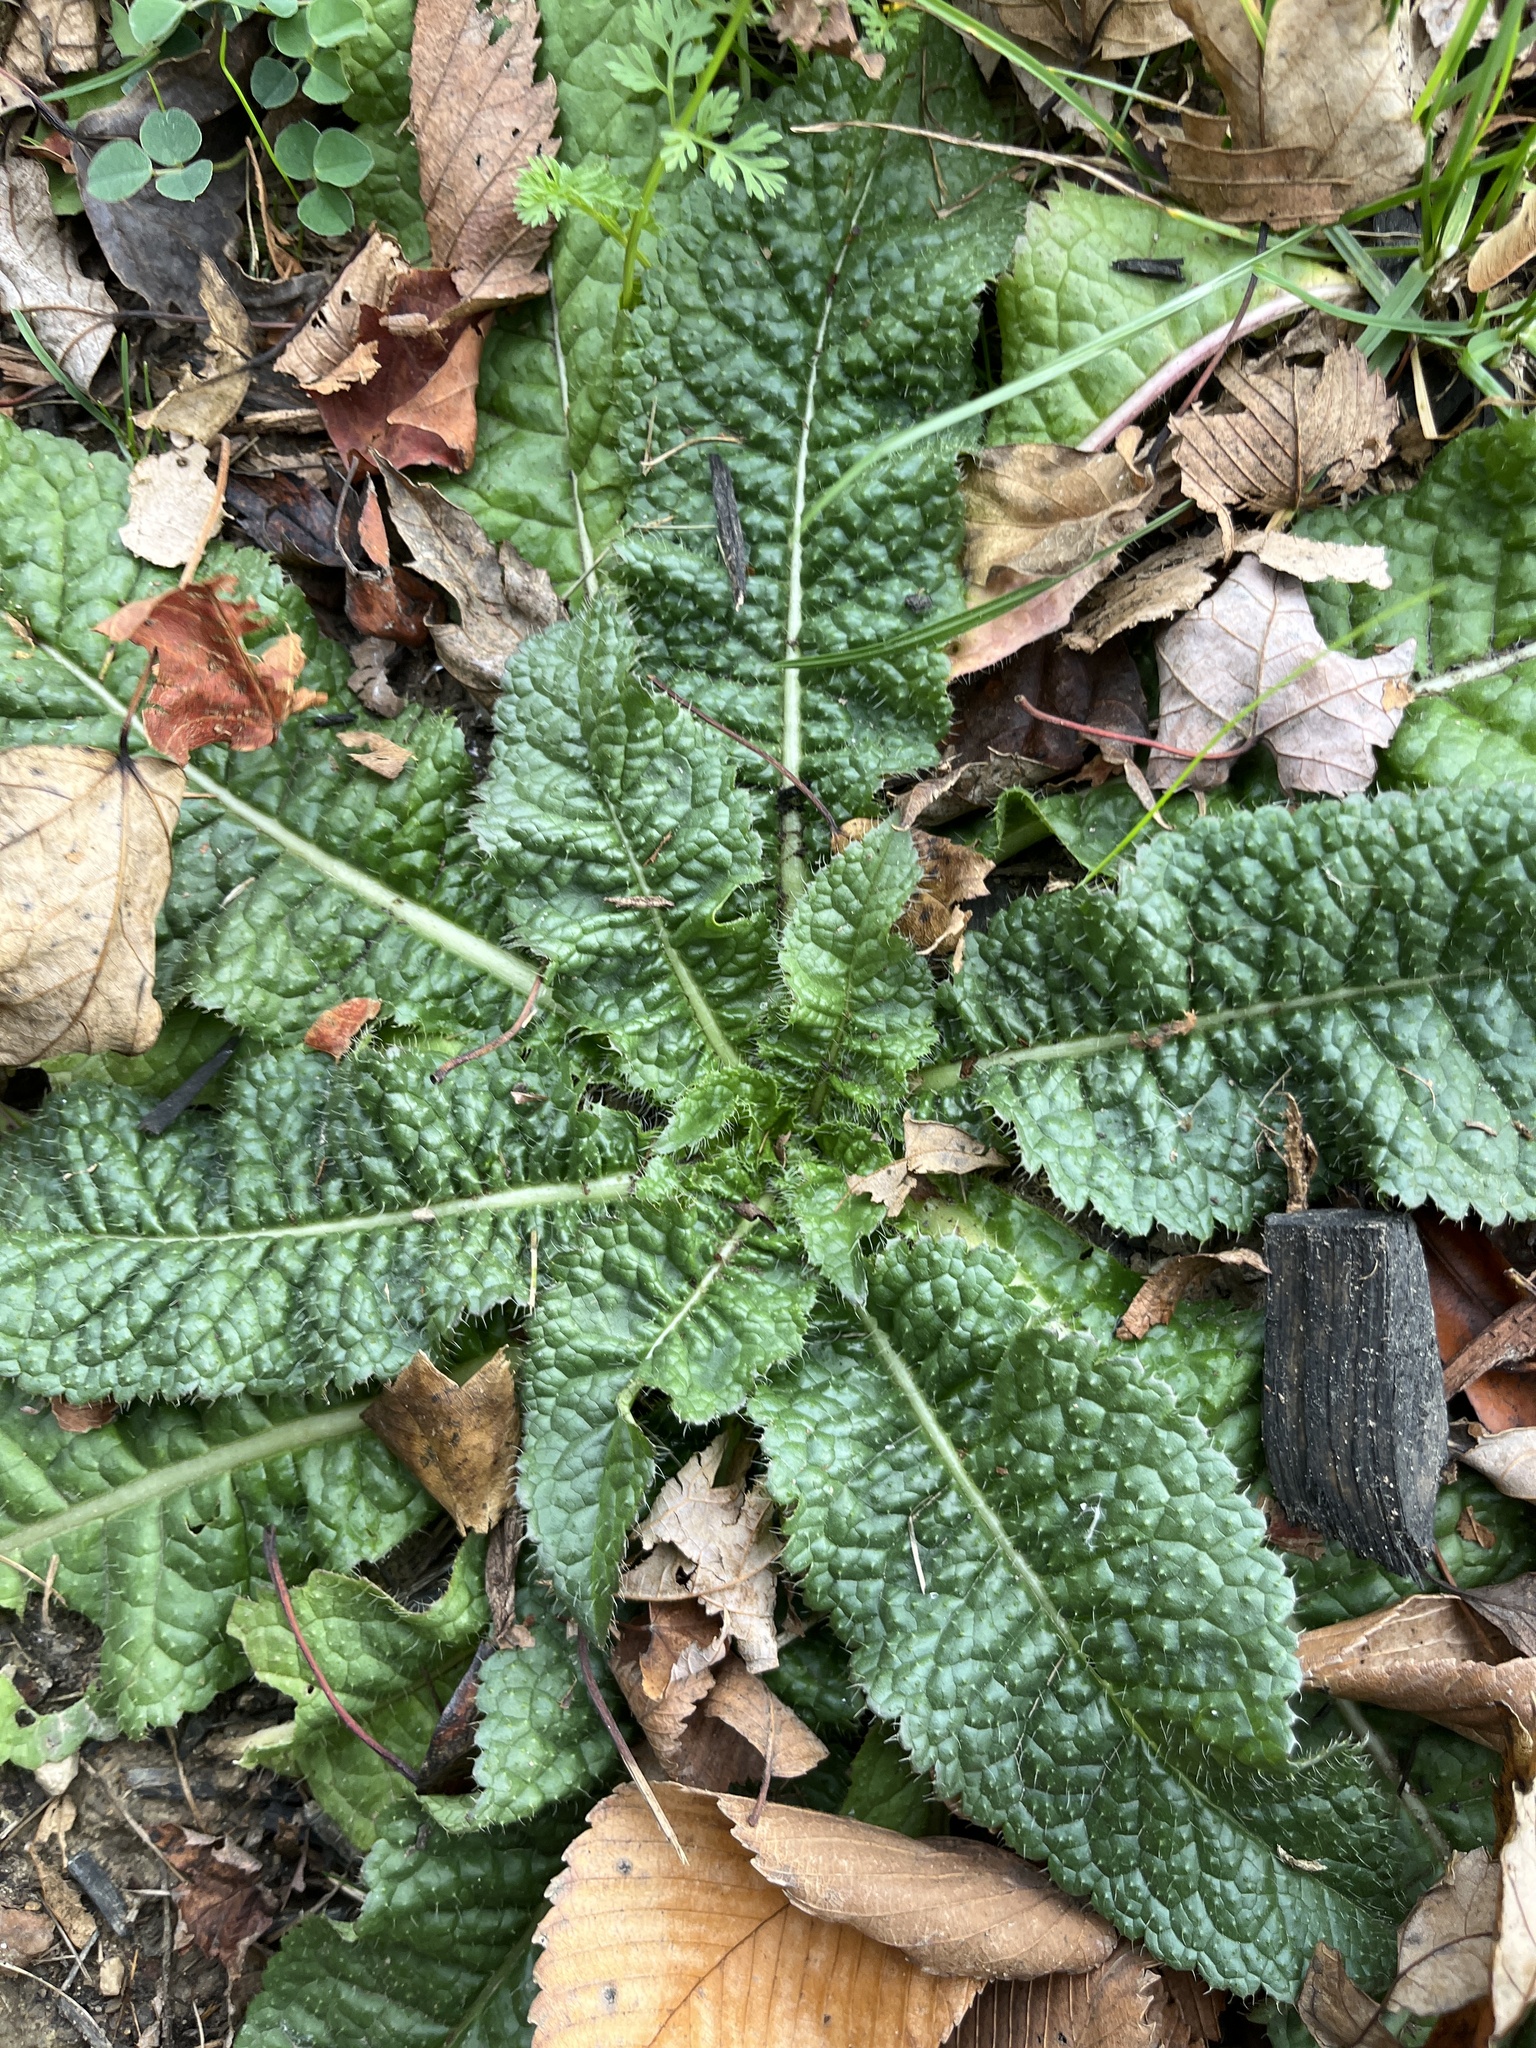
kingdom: Plantae
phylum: Tracheophyta
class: Magnoliopsida
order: Dipsacales
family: Caprifoliaceae
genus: Dipsacus
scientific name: Dipsacus fullonum
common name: Teasel
